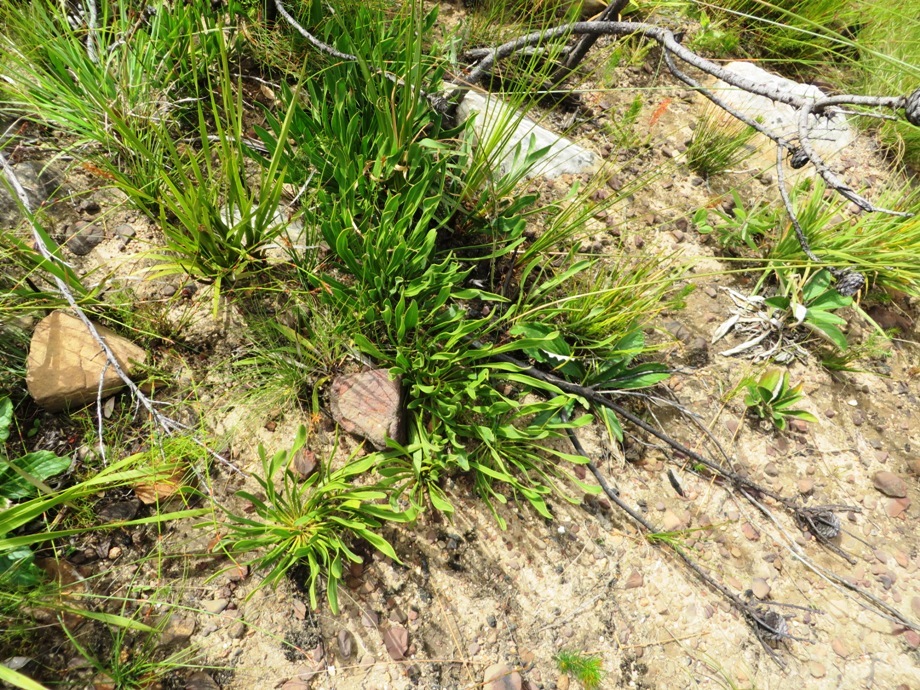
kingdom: Plantae
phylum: Tracheophyta
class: Magnoliopsida
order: Proteales
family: Proteaceae
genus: Protea
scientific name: Protea scabra
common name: Sandpaper-leaf sugarbush
